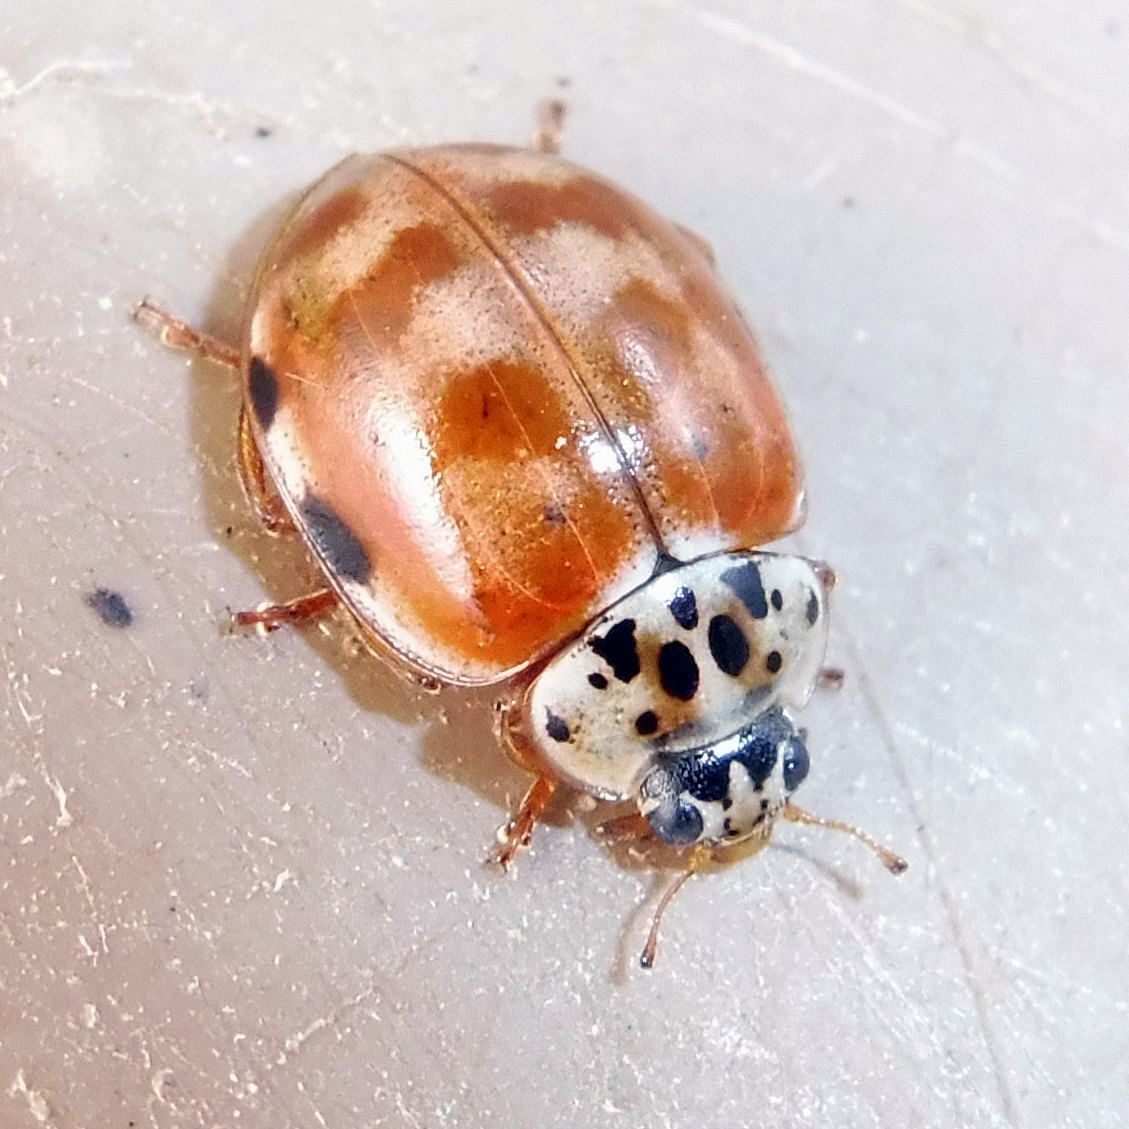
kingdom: Animalia
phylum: Arthropoda
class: Insecta
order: Coleoptera
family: Coccinellidae
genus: Harmonia
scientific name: Harmonia quadripunctata
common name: Cream-streaked ladybird
